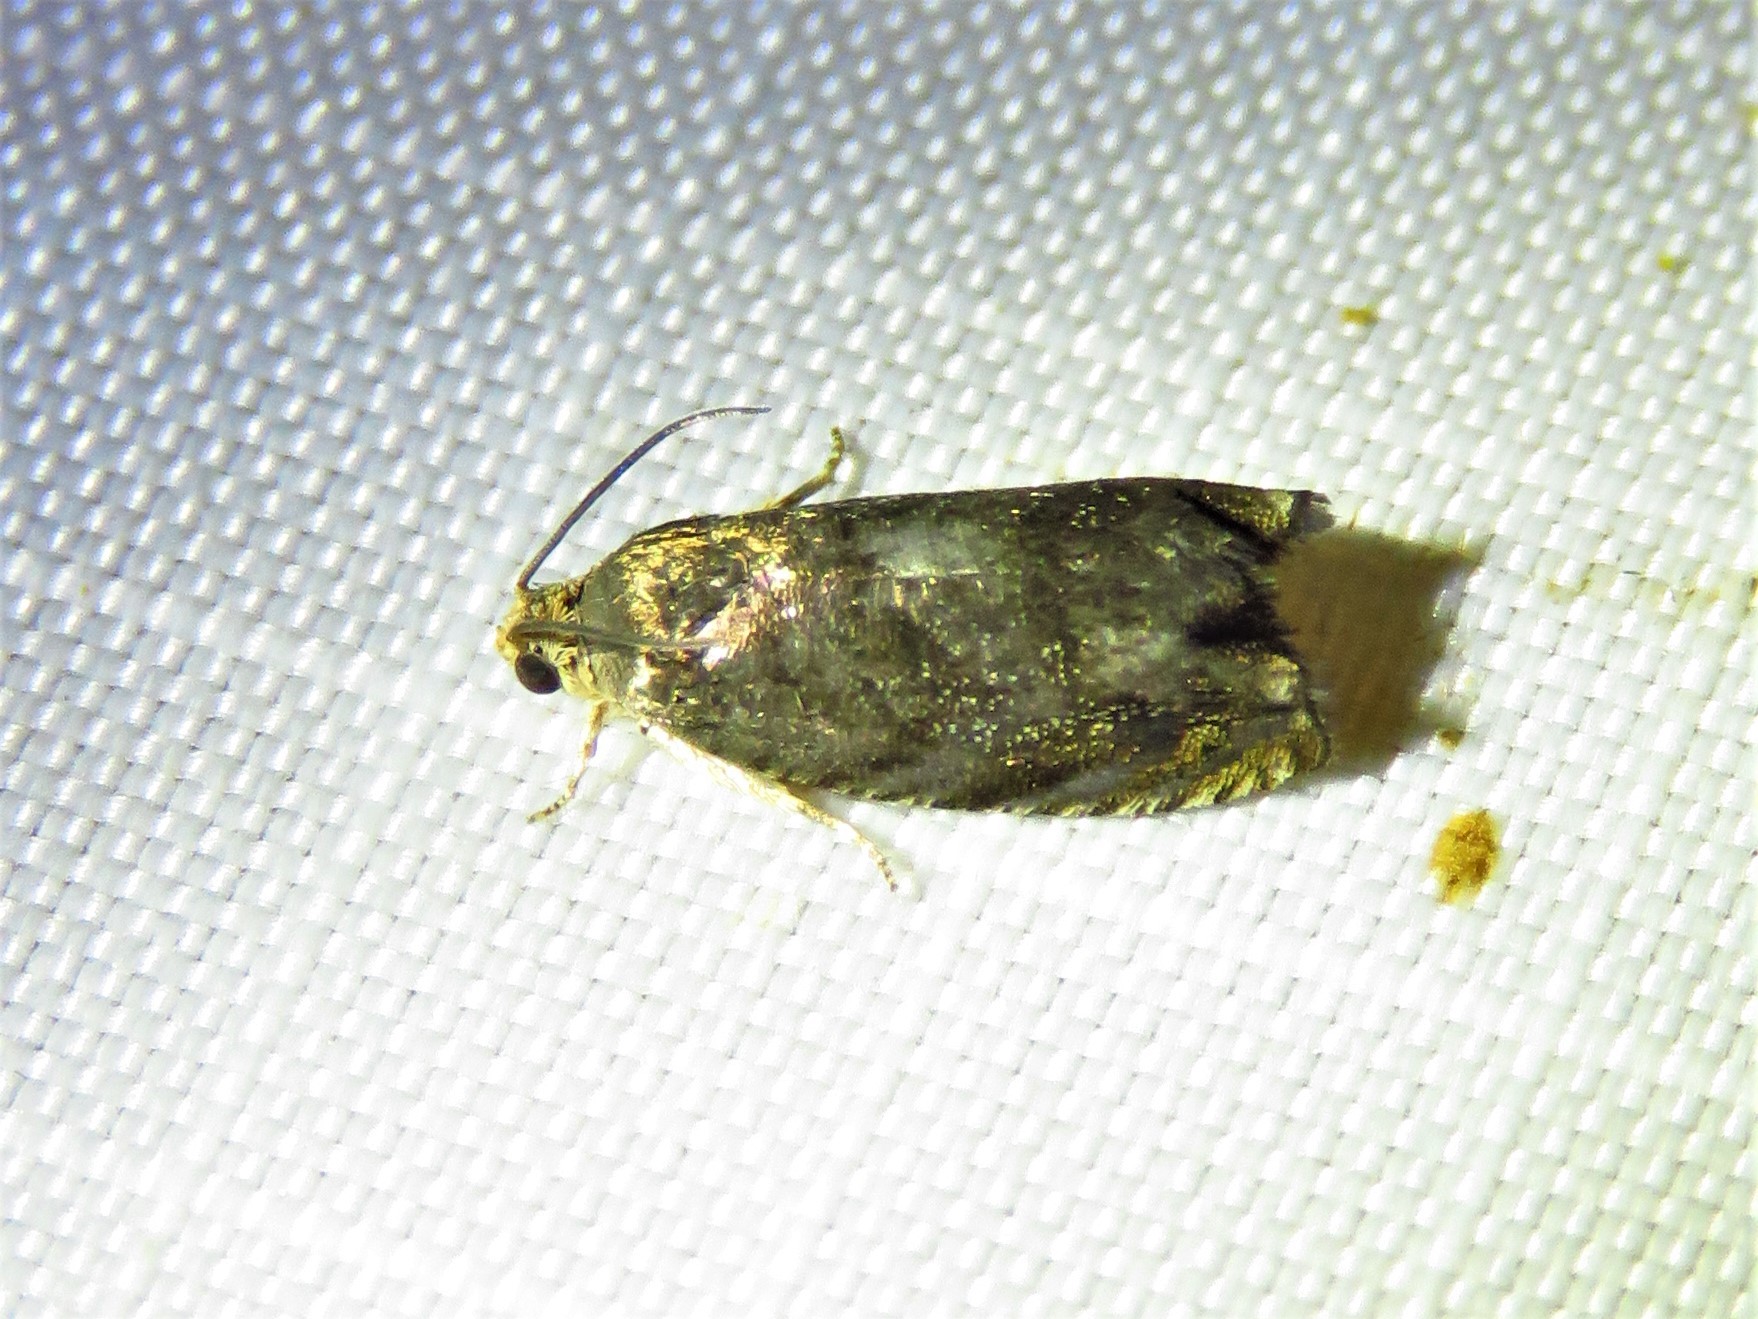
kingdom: Animalia
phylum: Arthropoda
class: Insecta
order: Lepidoptera
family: Tortricidae
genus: Cydia
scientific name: Cydia caryana
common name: Hickory shuckworm moth
